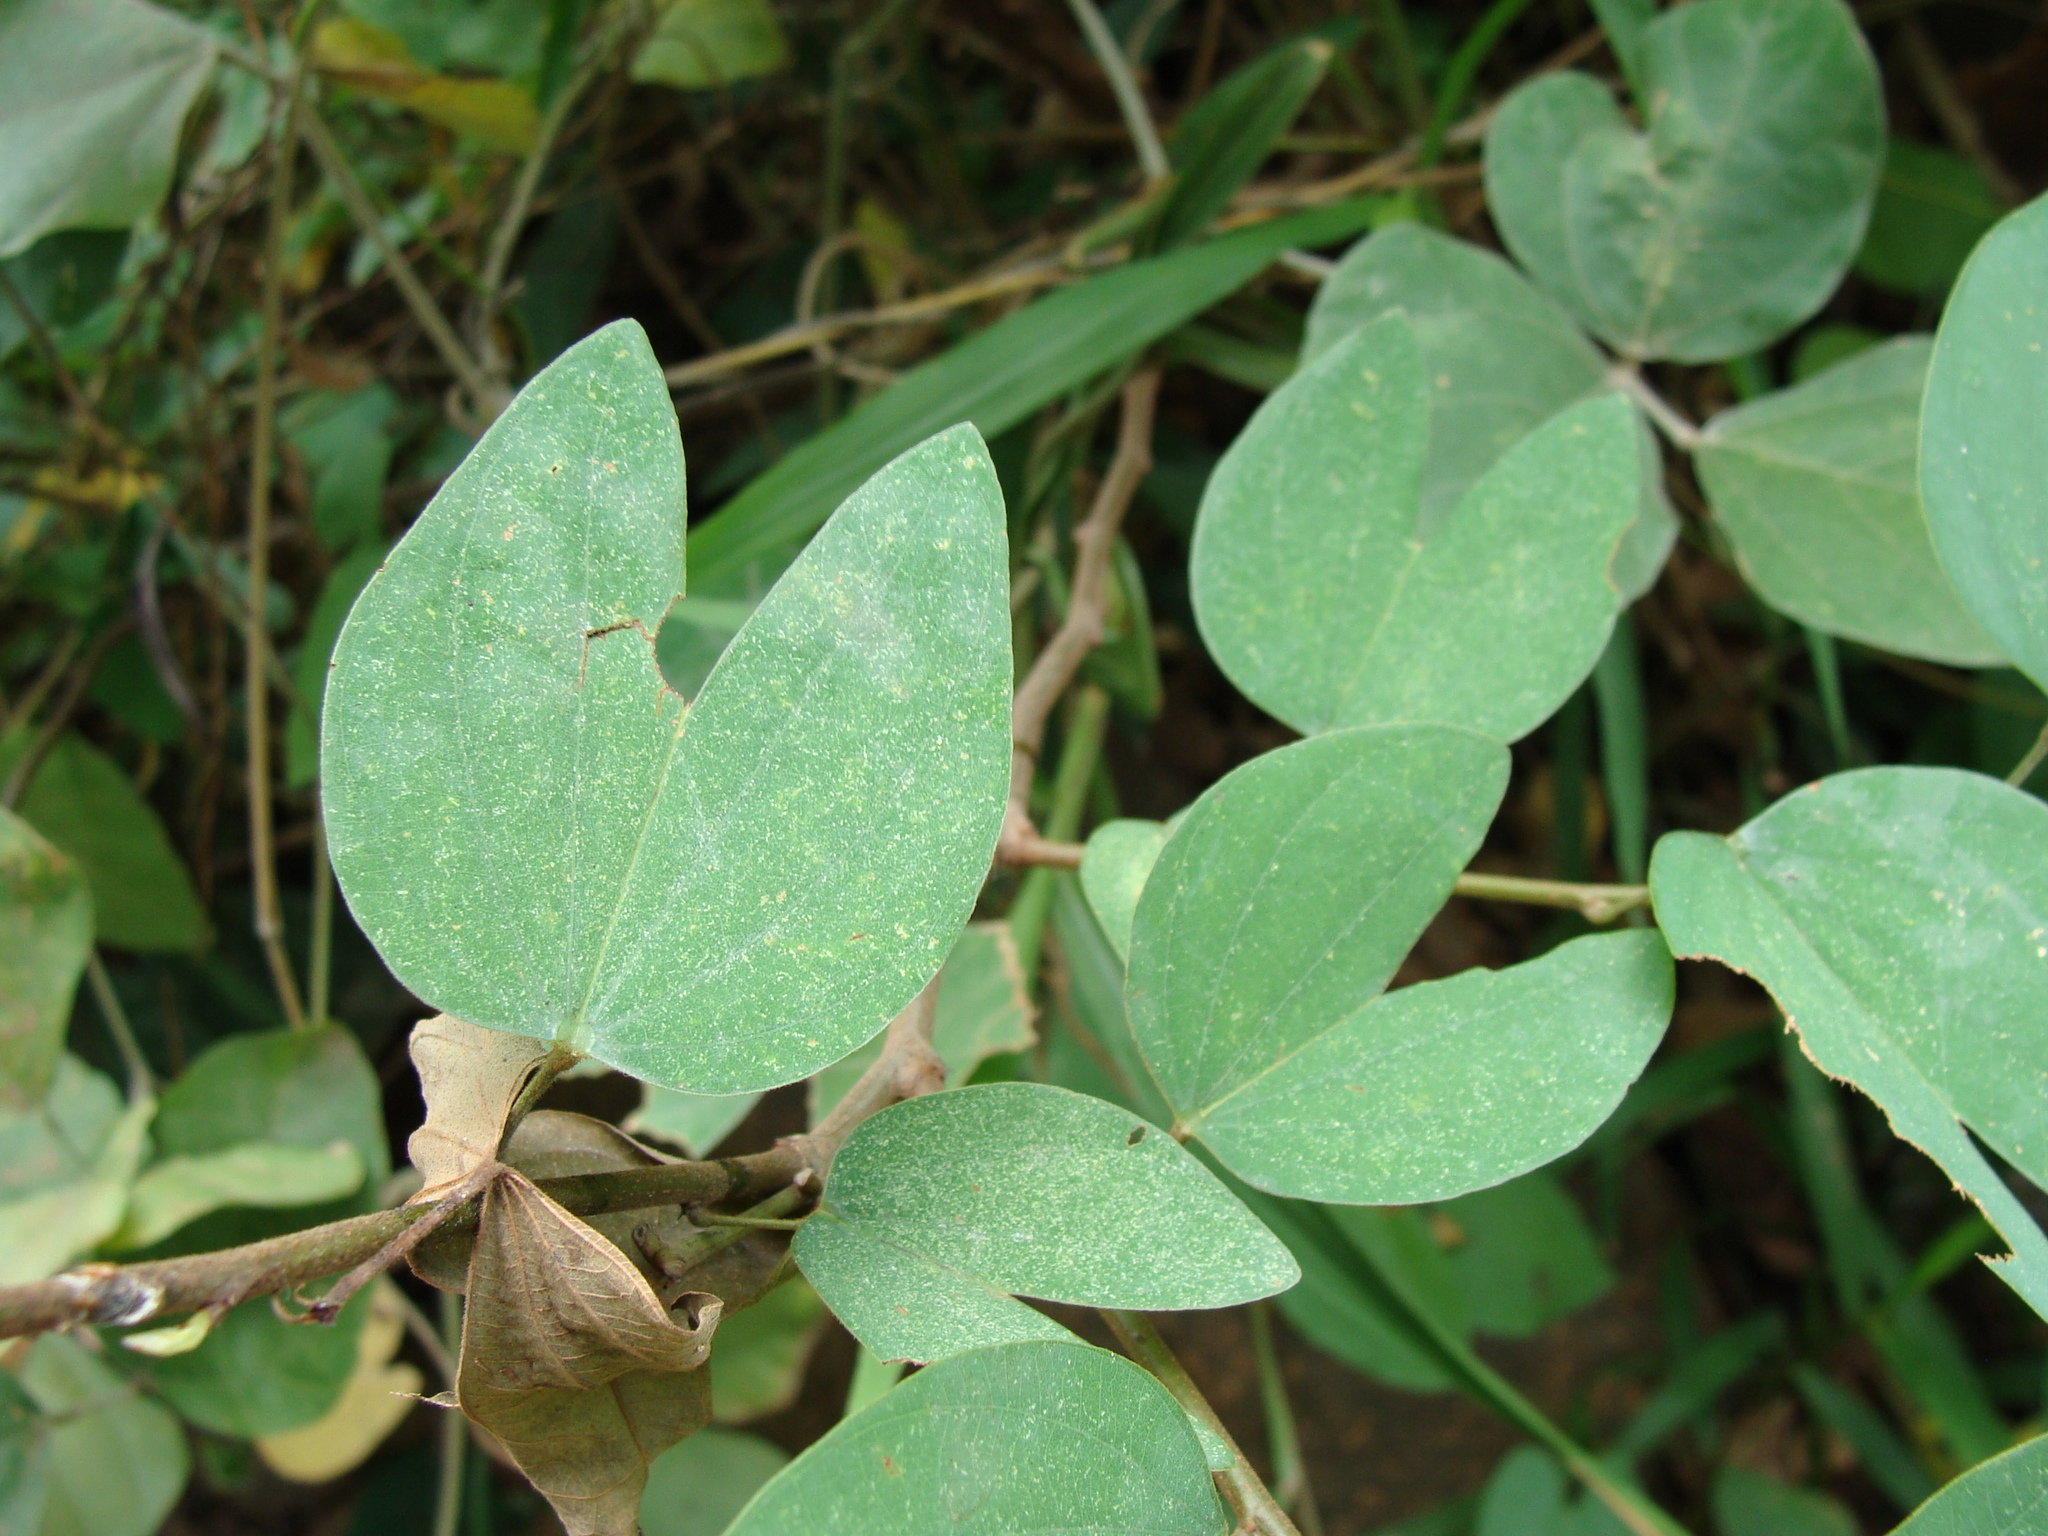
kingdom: Plantae
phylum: Tracheophyta
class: Magnoliopsida
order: Fabales
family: Fabaceae
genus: Bauhinia
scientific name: Bauhinia ungulata
